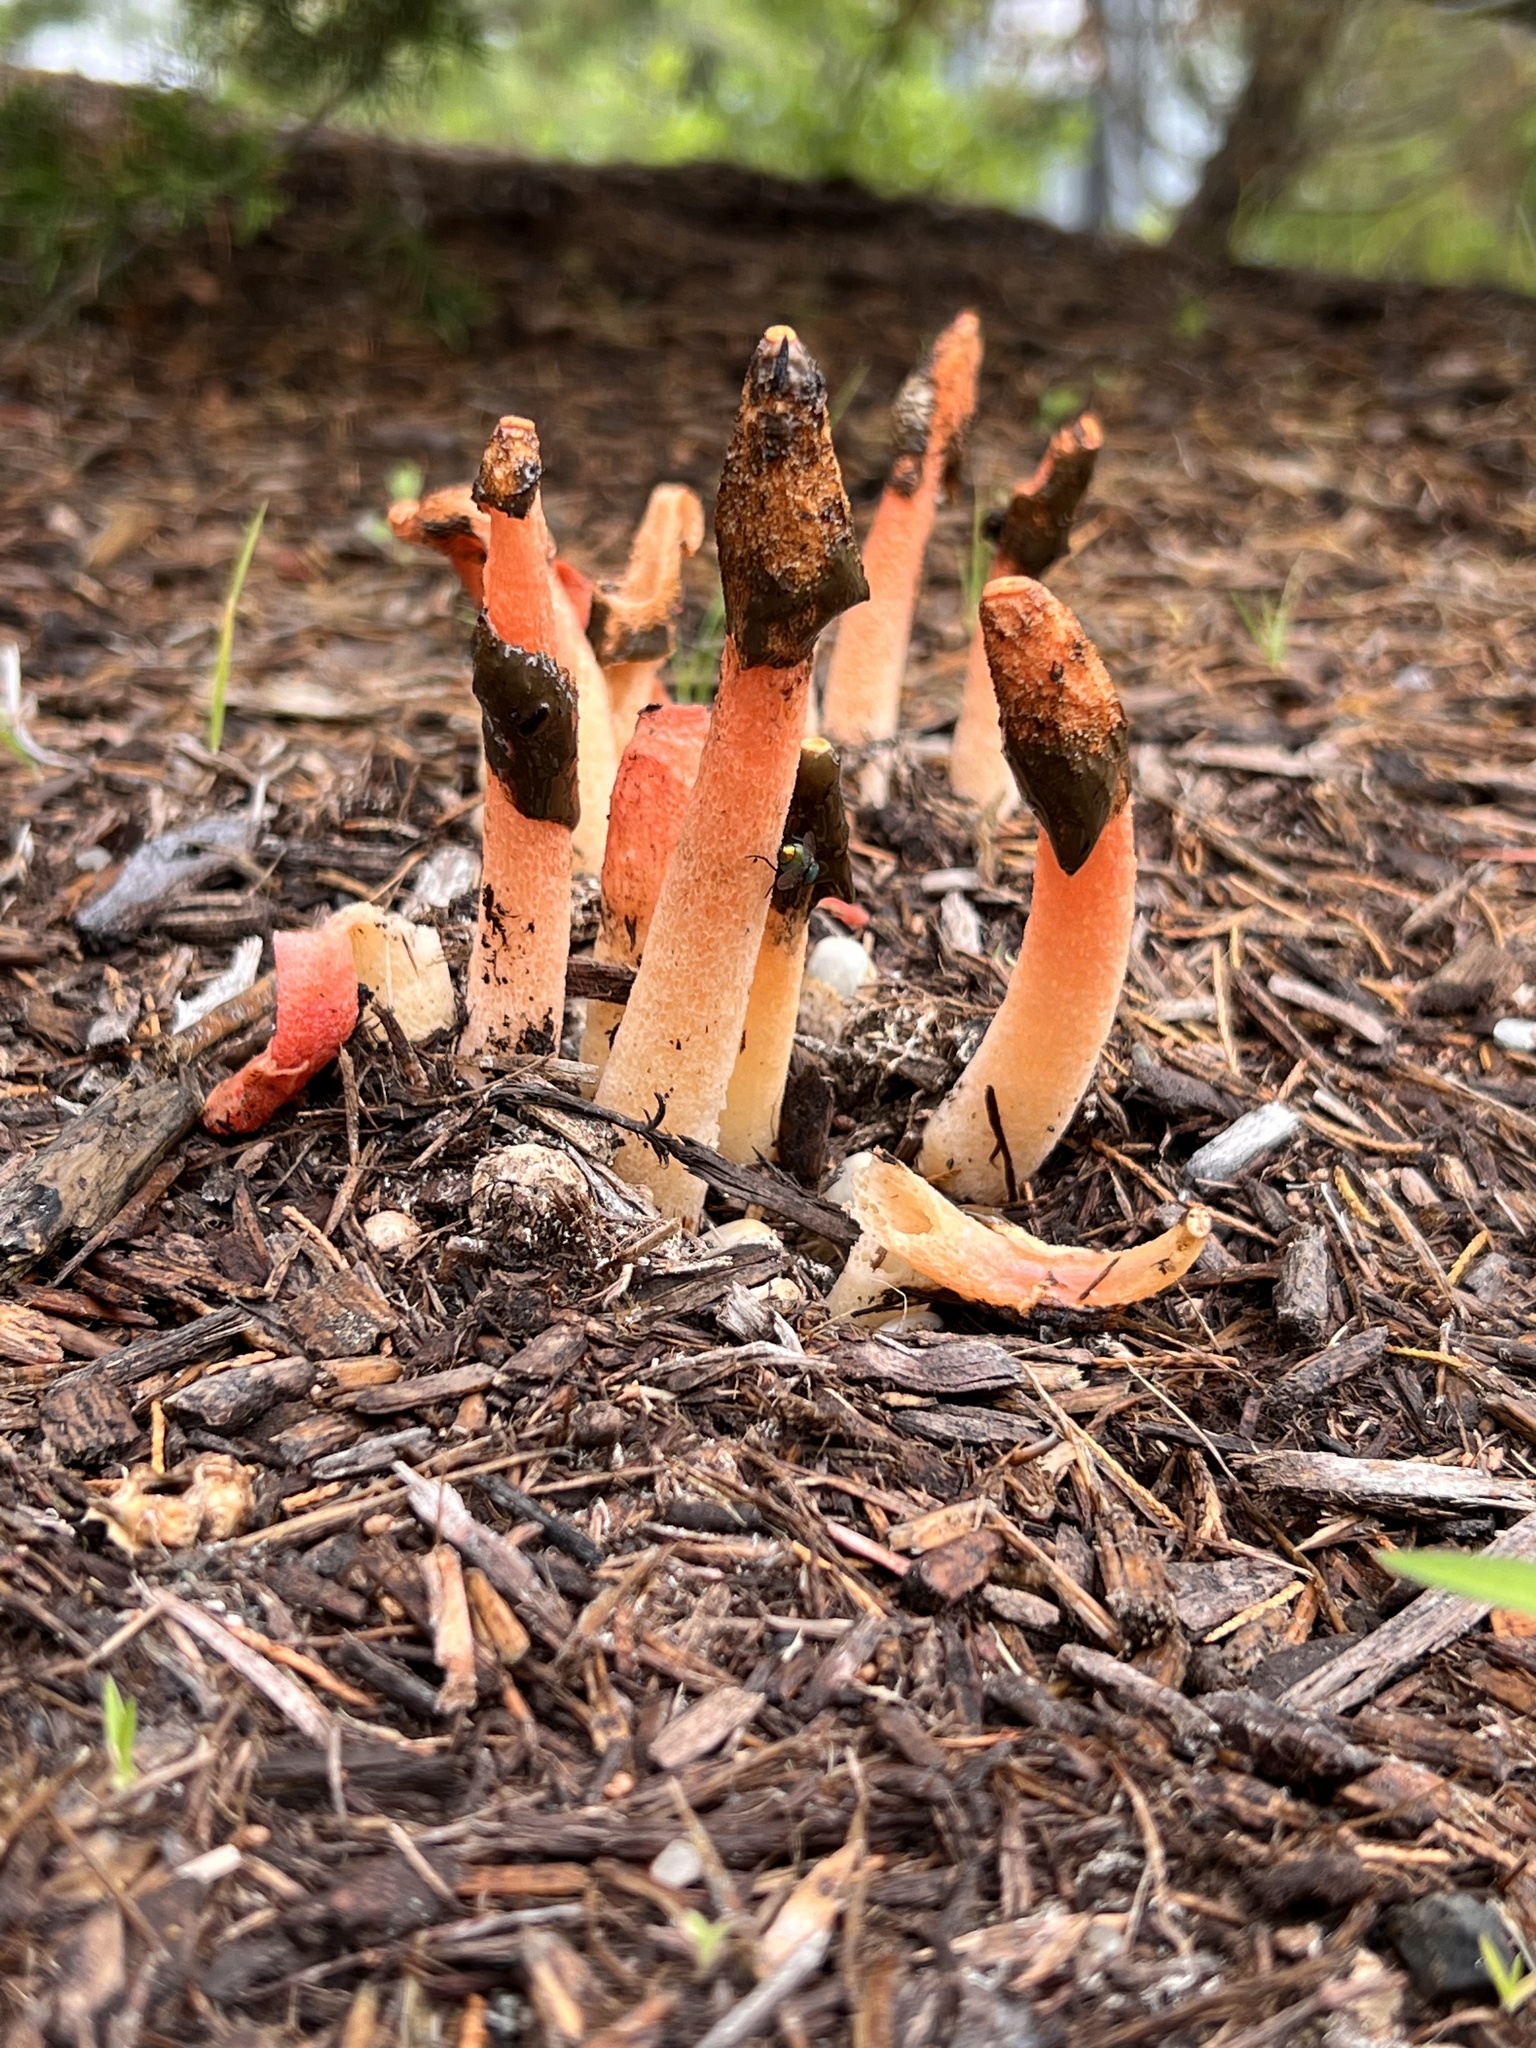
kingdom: Fungi
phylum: Basidiomycota
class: Agaricomycetes
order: Phallales
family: Phallaceae
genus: Phallus
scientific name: Phallus rugulosus
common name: Wrinkly stinkhorn
